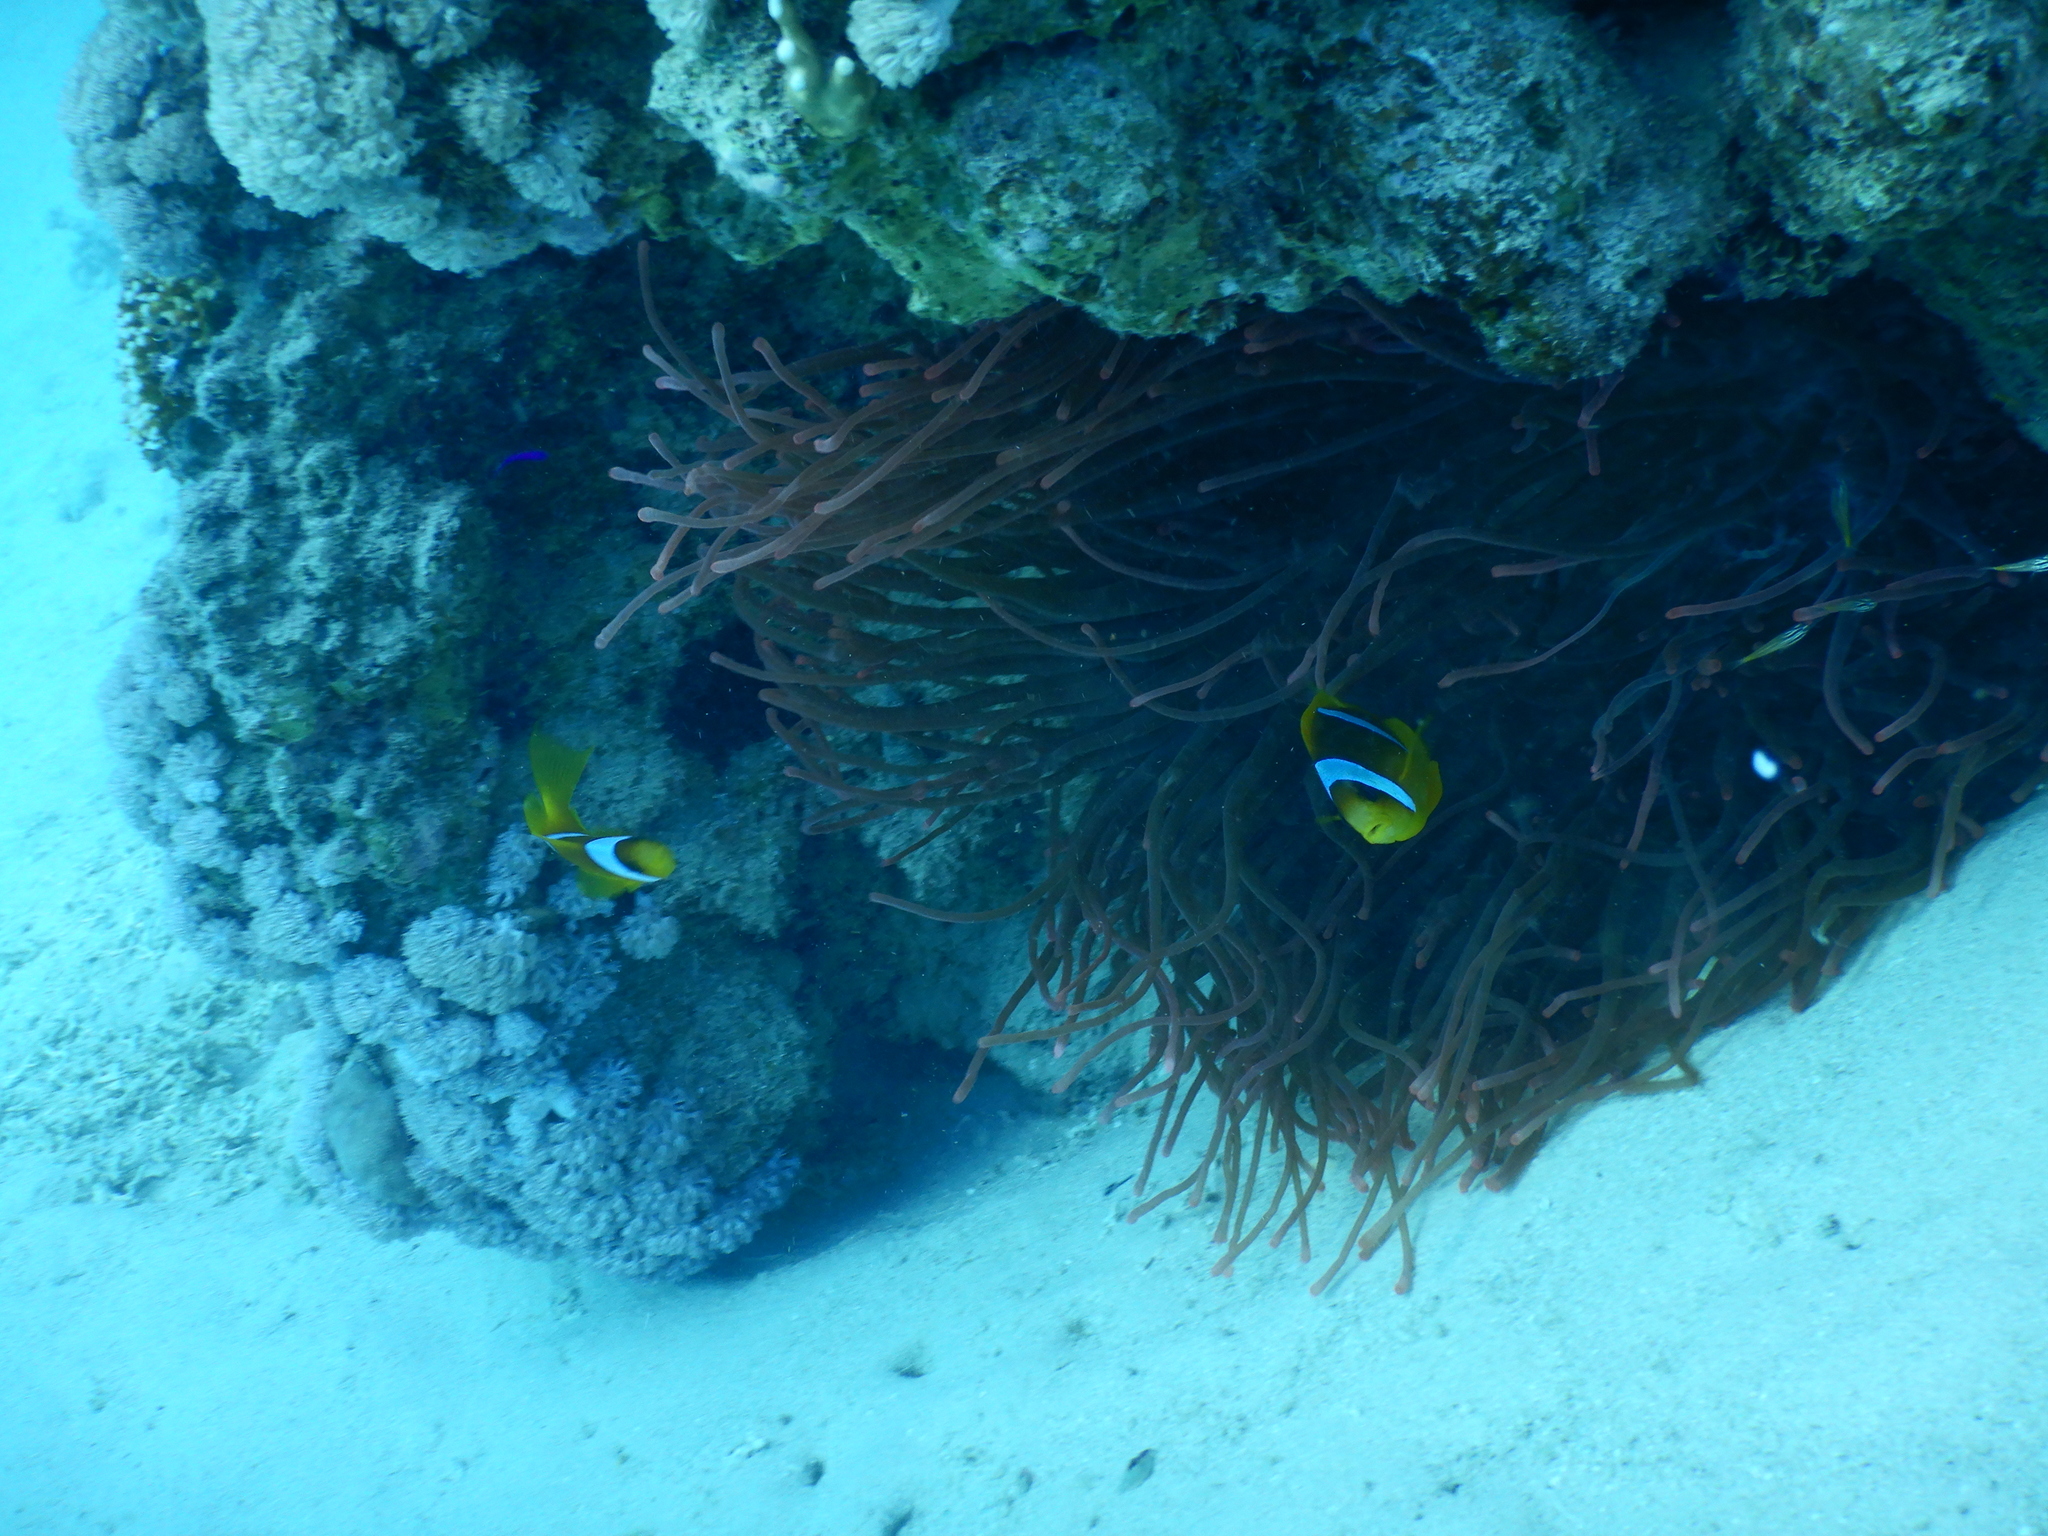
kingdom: Animalia
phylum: Chordata
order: Perciformes
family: Pomacentridae
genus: Amphiprion
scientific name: Amphiprion bicinctus
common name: Two-banded anemonefish
